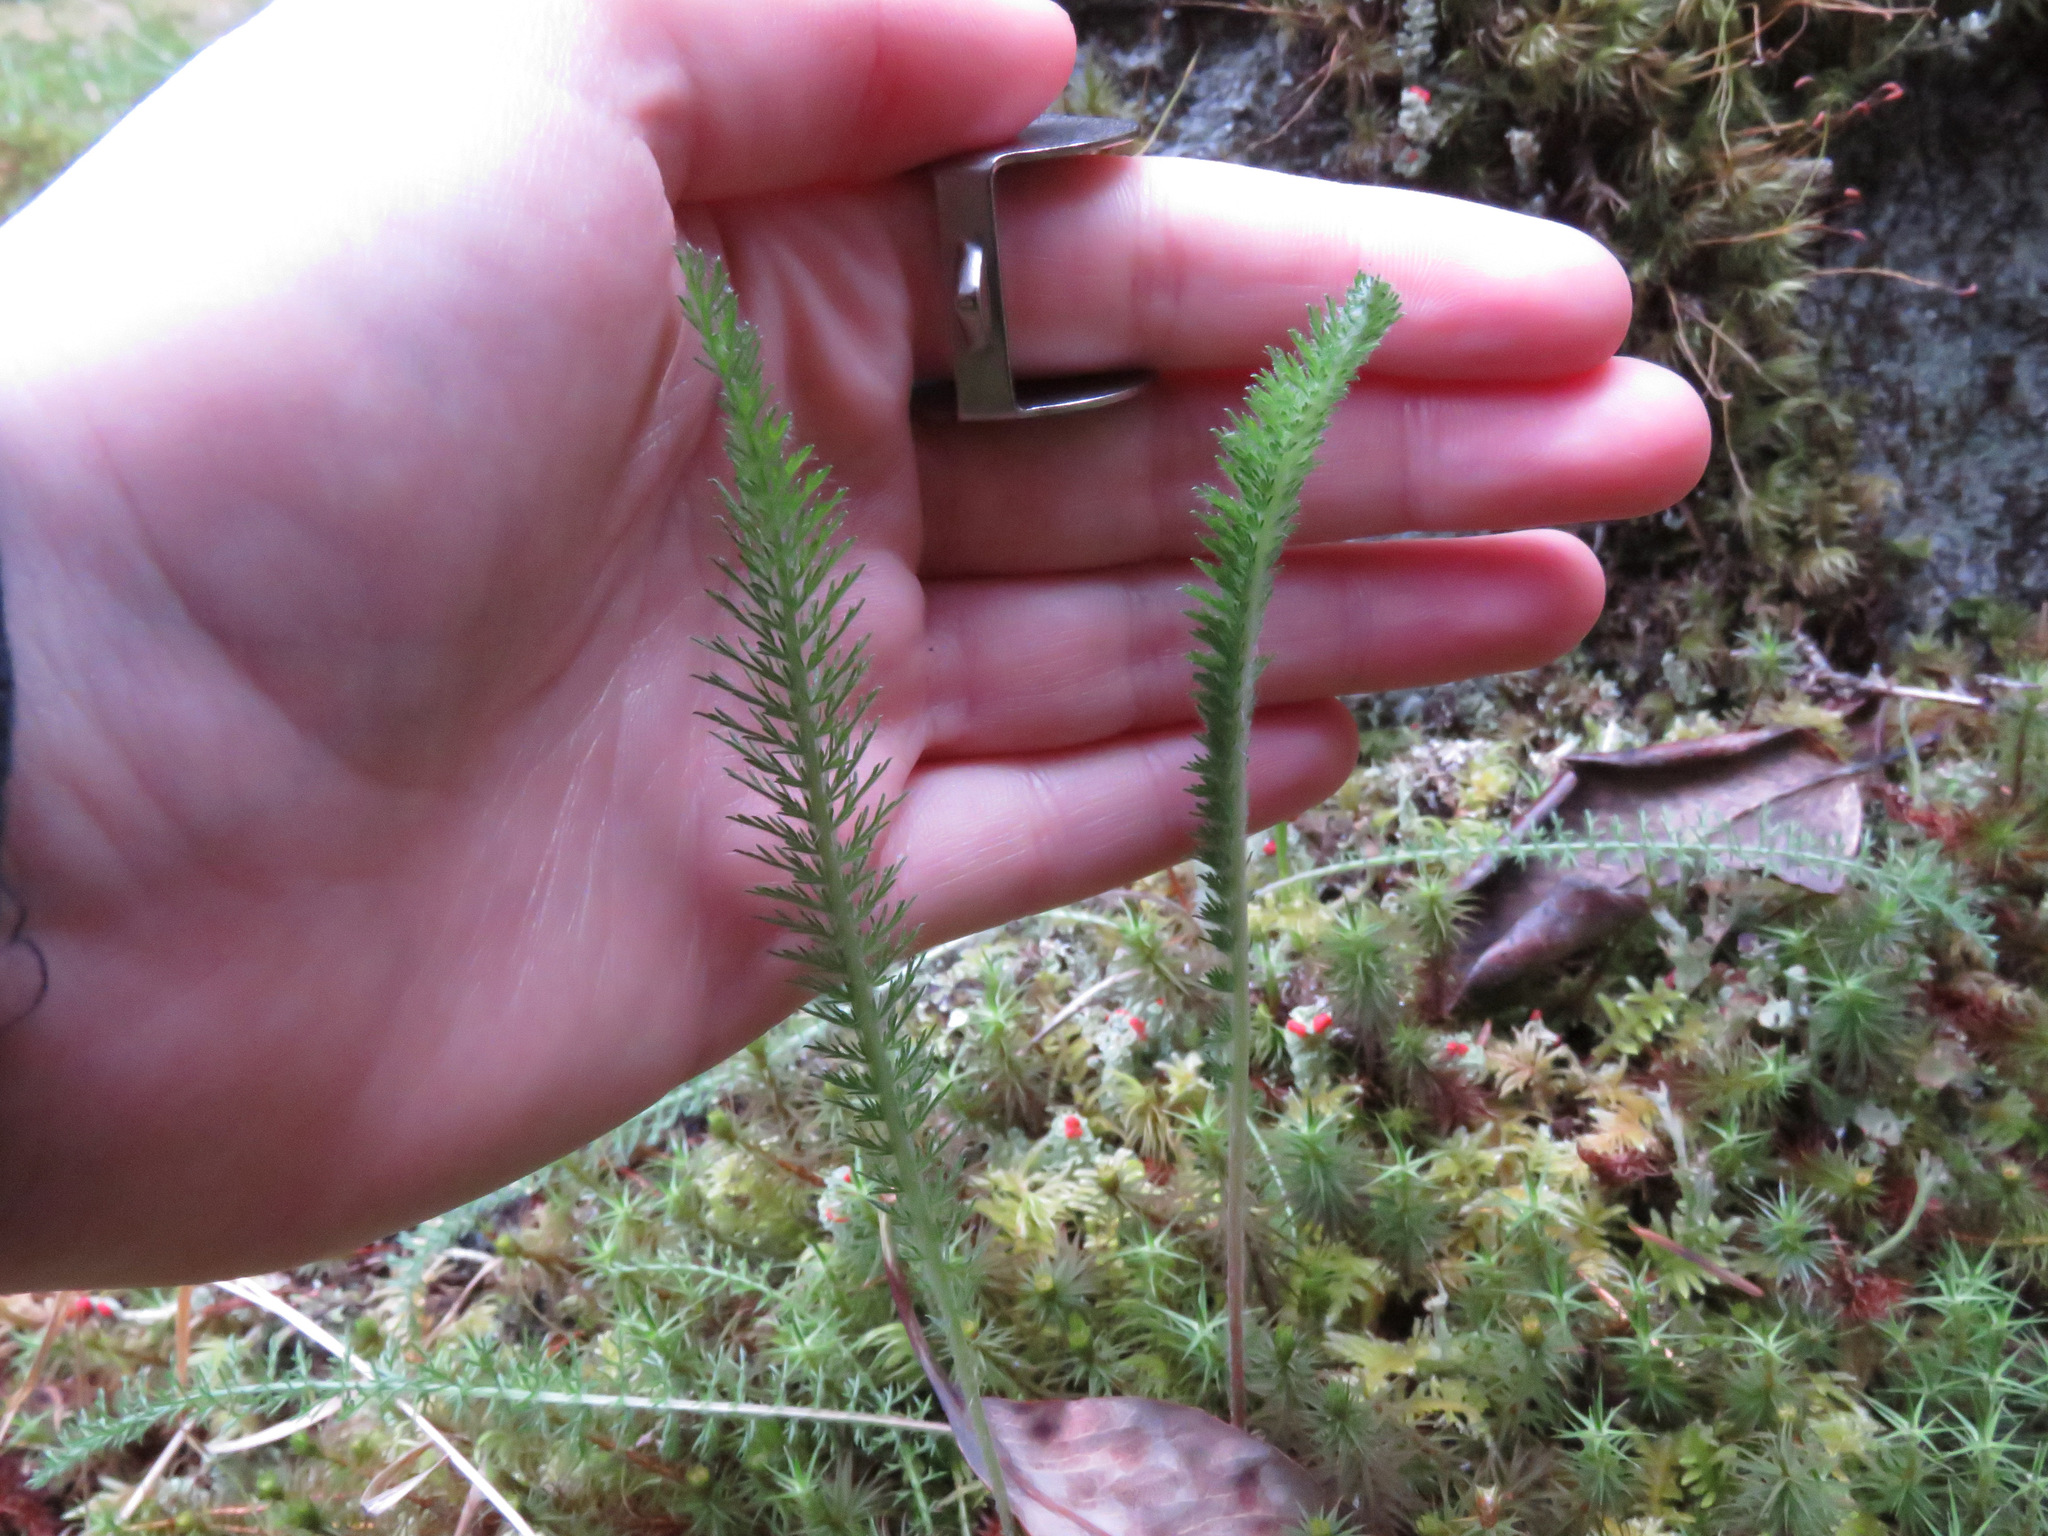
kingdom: Plantae
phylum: Tracheophyta
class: Magnoliopsida
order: Asterales
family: Asteraceae
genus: Achillea
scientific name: Achillea millefolium
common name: Yarrow
